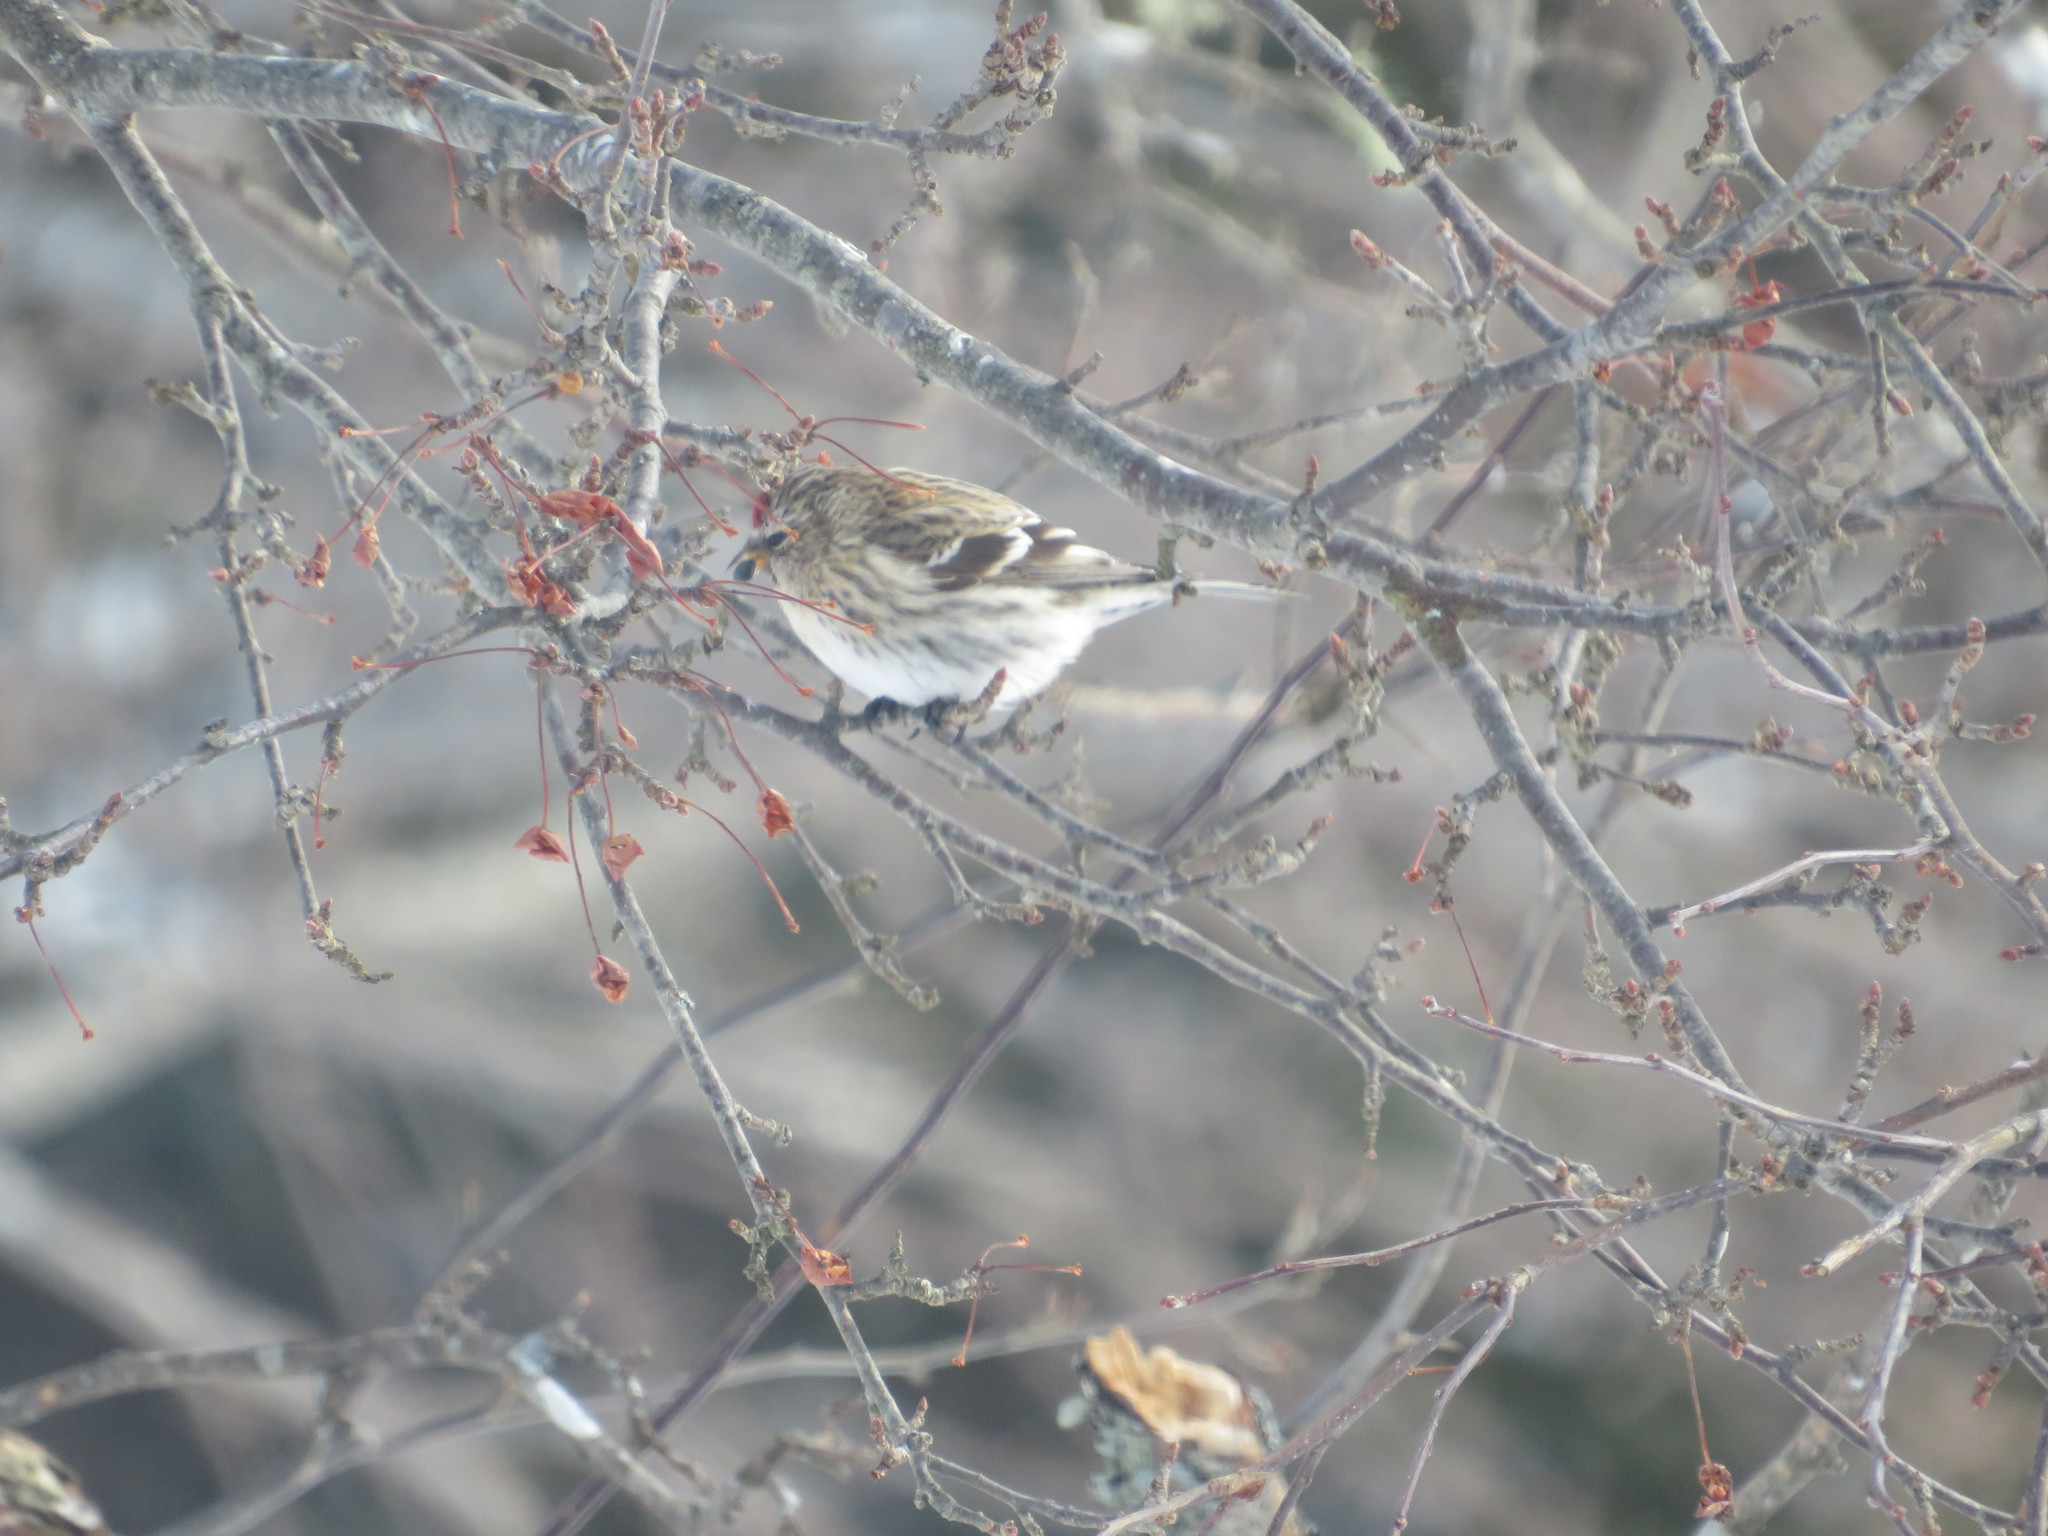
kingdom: Animalia
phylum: Chordata
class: Aves
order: Passeriformes
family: Fringillidae
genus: Acanthis
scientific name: Acanthis flammea
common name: Common redpoll
